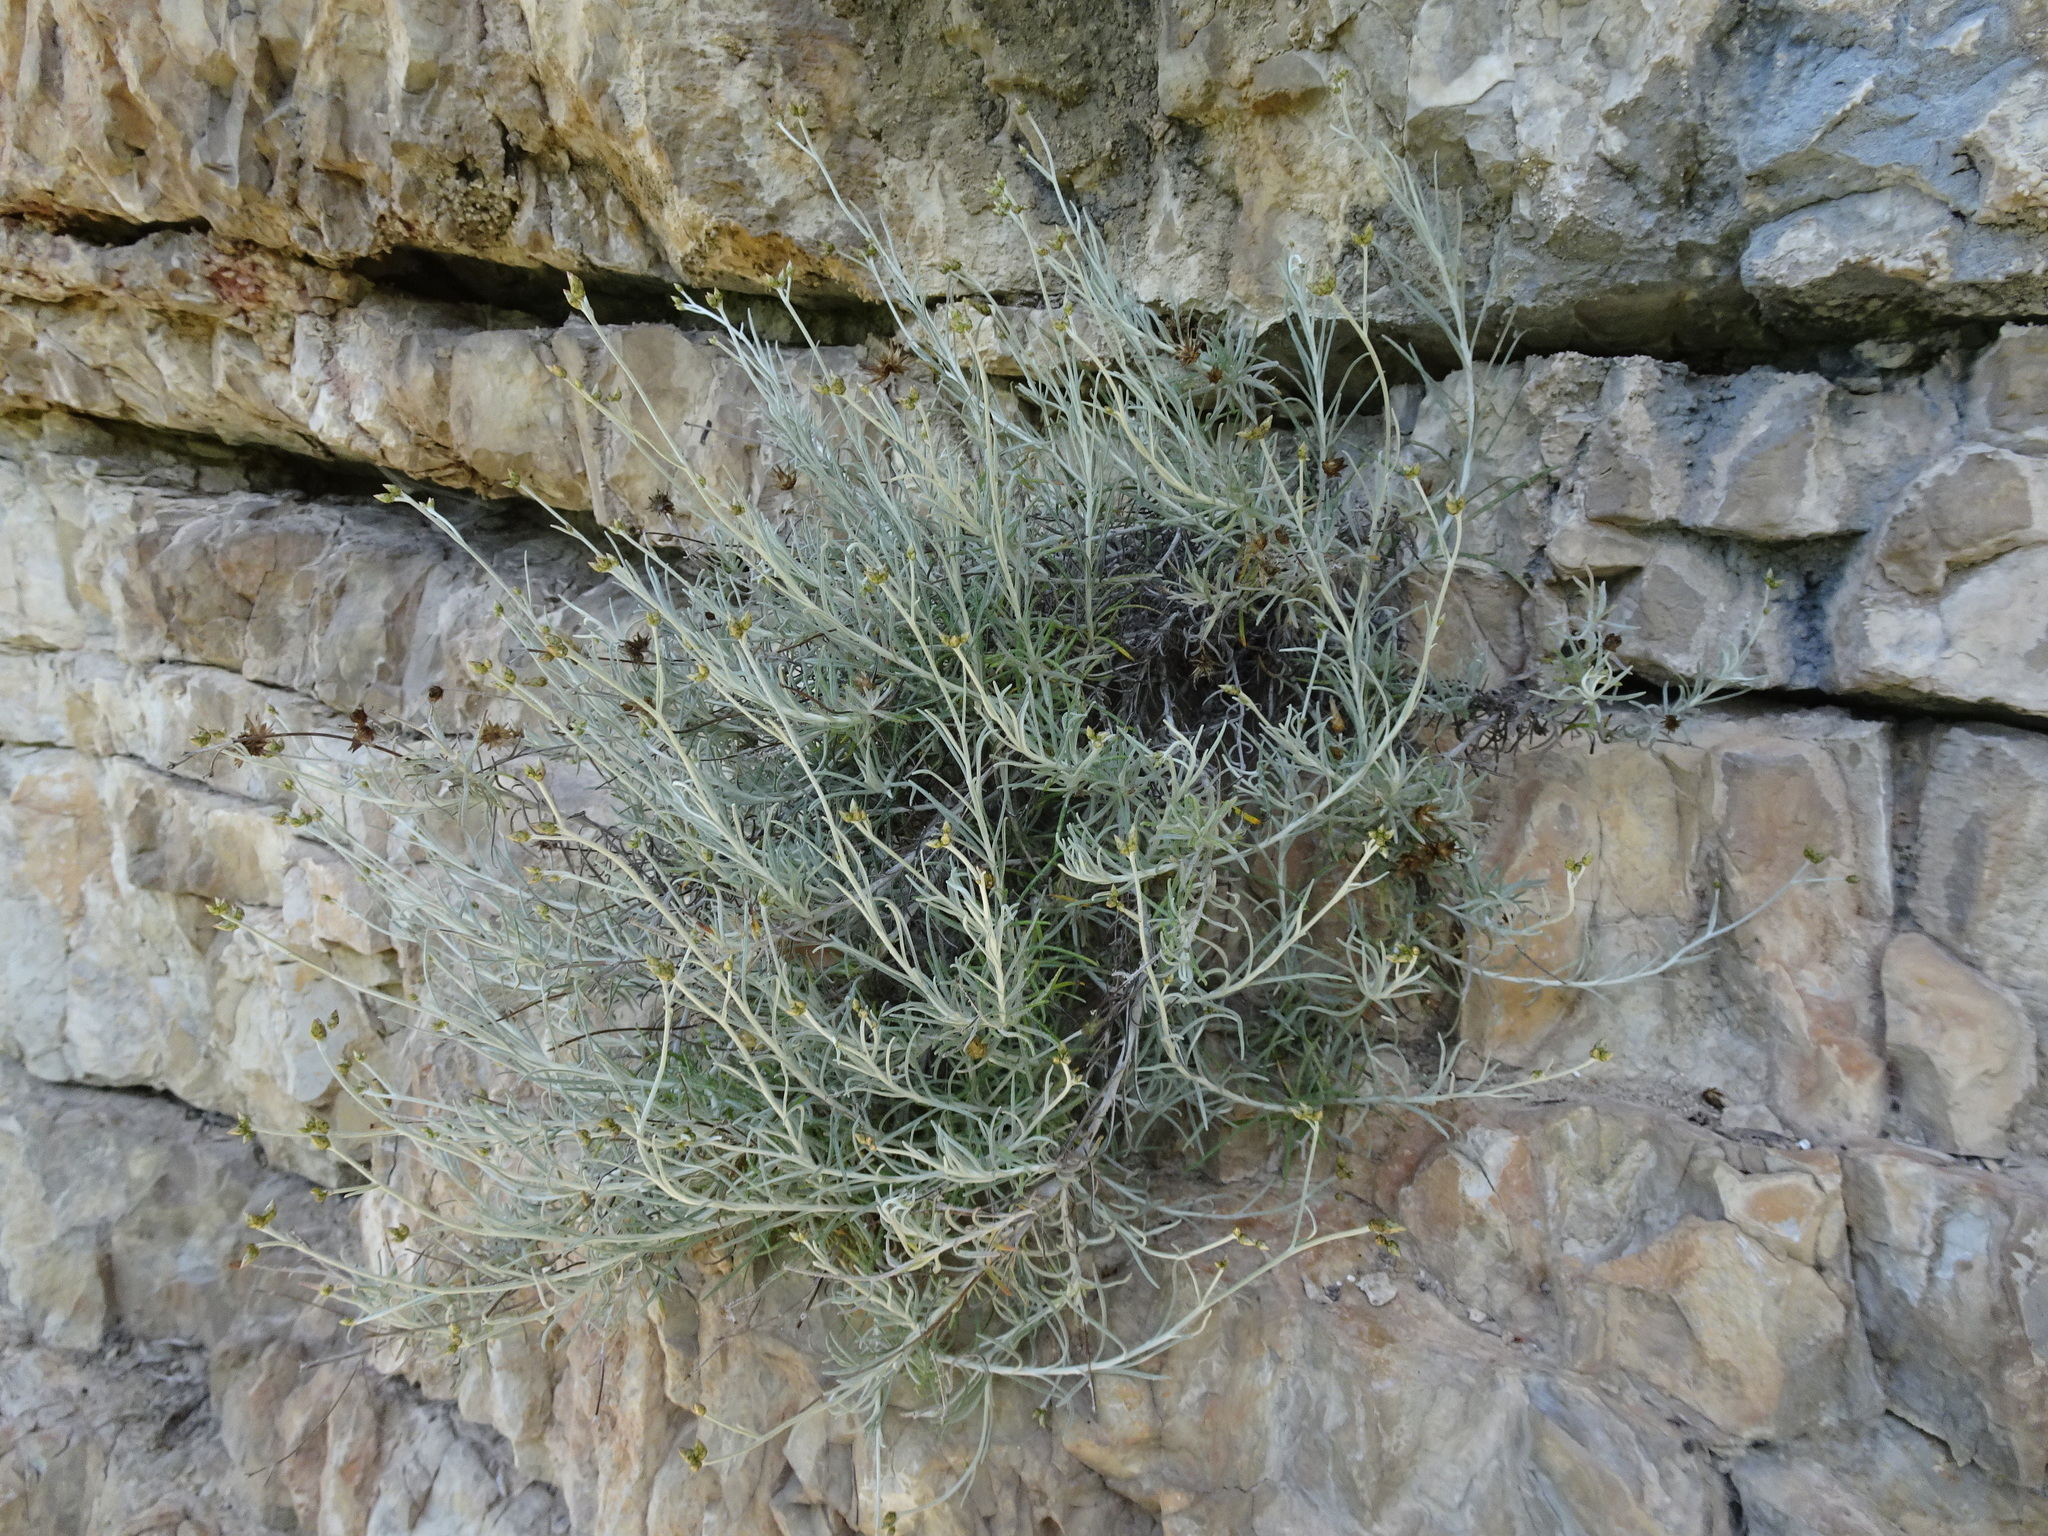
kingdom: Plantae
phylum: Tracheophyta
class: Magnoliopsida
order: Asterales
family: Asteraceae
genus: Phagnalon
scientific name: Phagnalon sordidum
